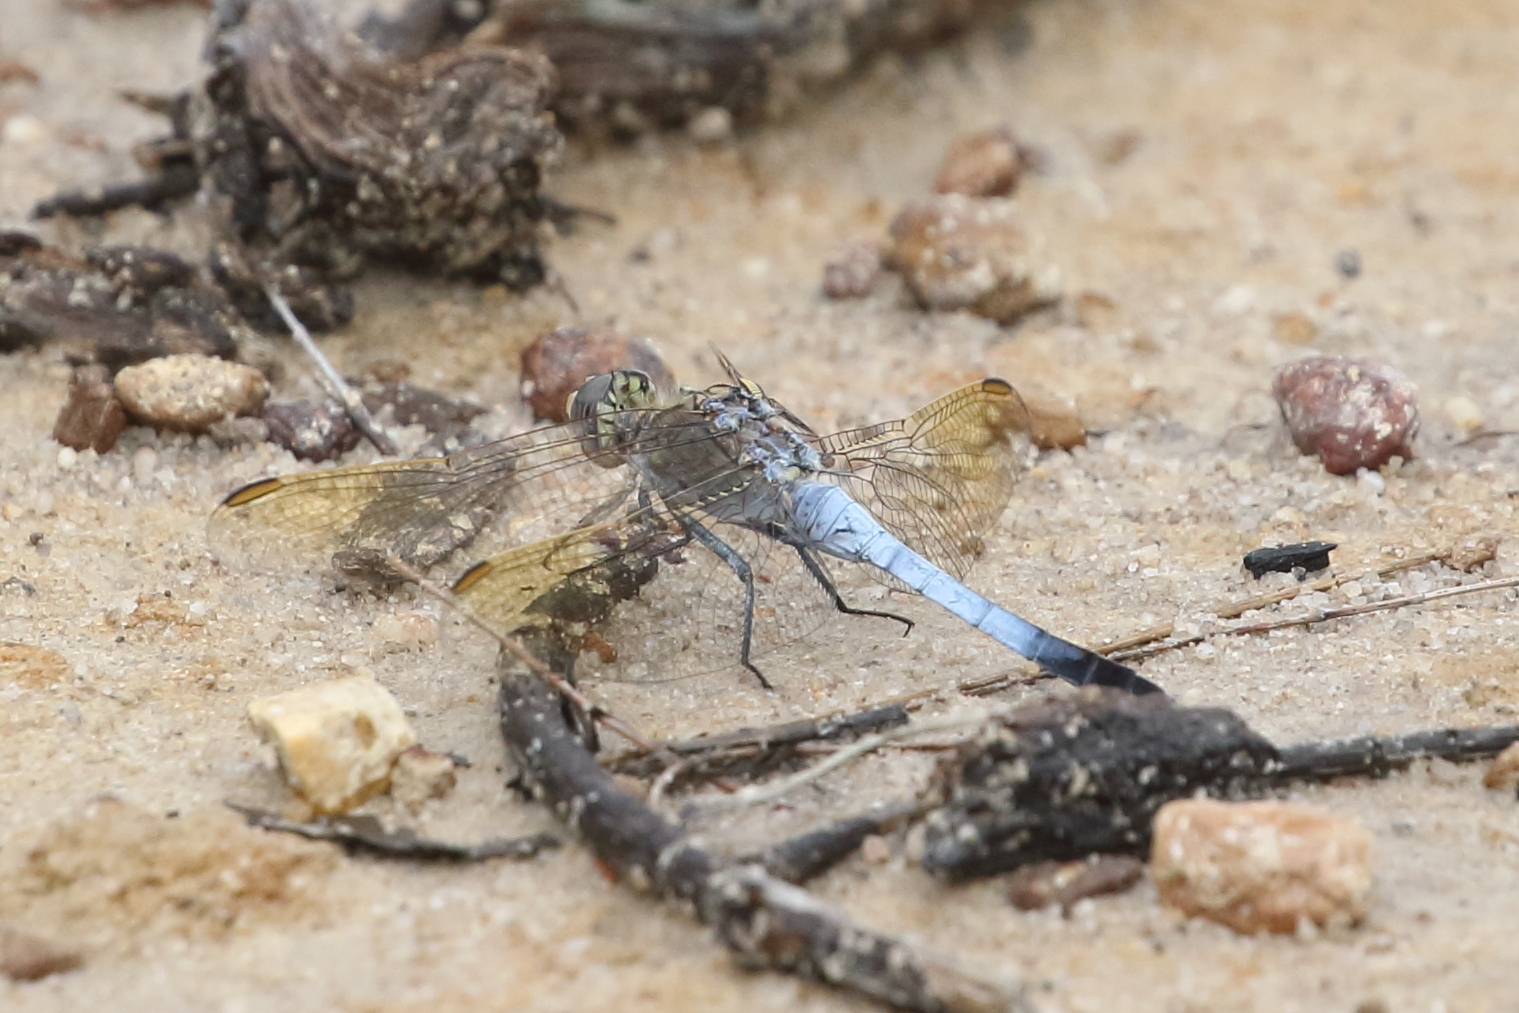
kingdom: Animalia
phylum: Arthropoda
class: Insecta
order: Odonata
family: Libellulidae
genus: Orthetrum
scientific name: Orthetrum caledonicum
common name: Blue skimmer
